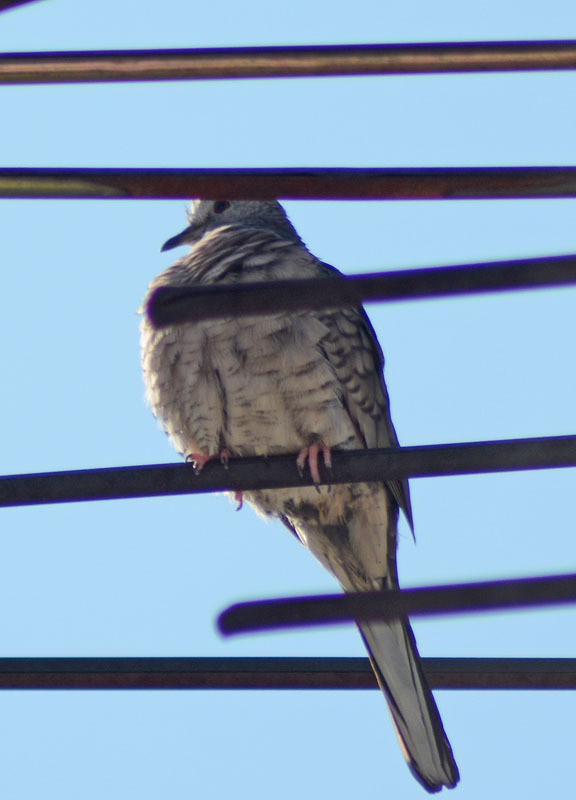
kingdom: Animalia
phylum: Chordata
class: Aves
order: Columbiformes
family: Columbidae
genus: Columbina
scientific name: Columbina inca
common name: Inca dove
